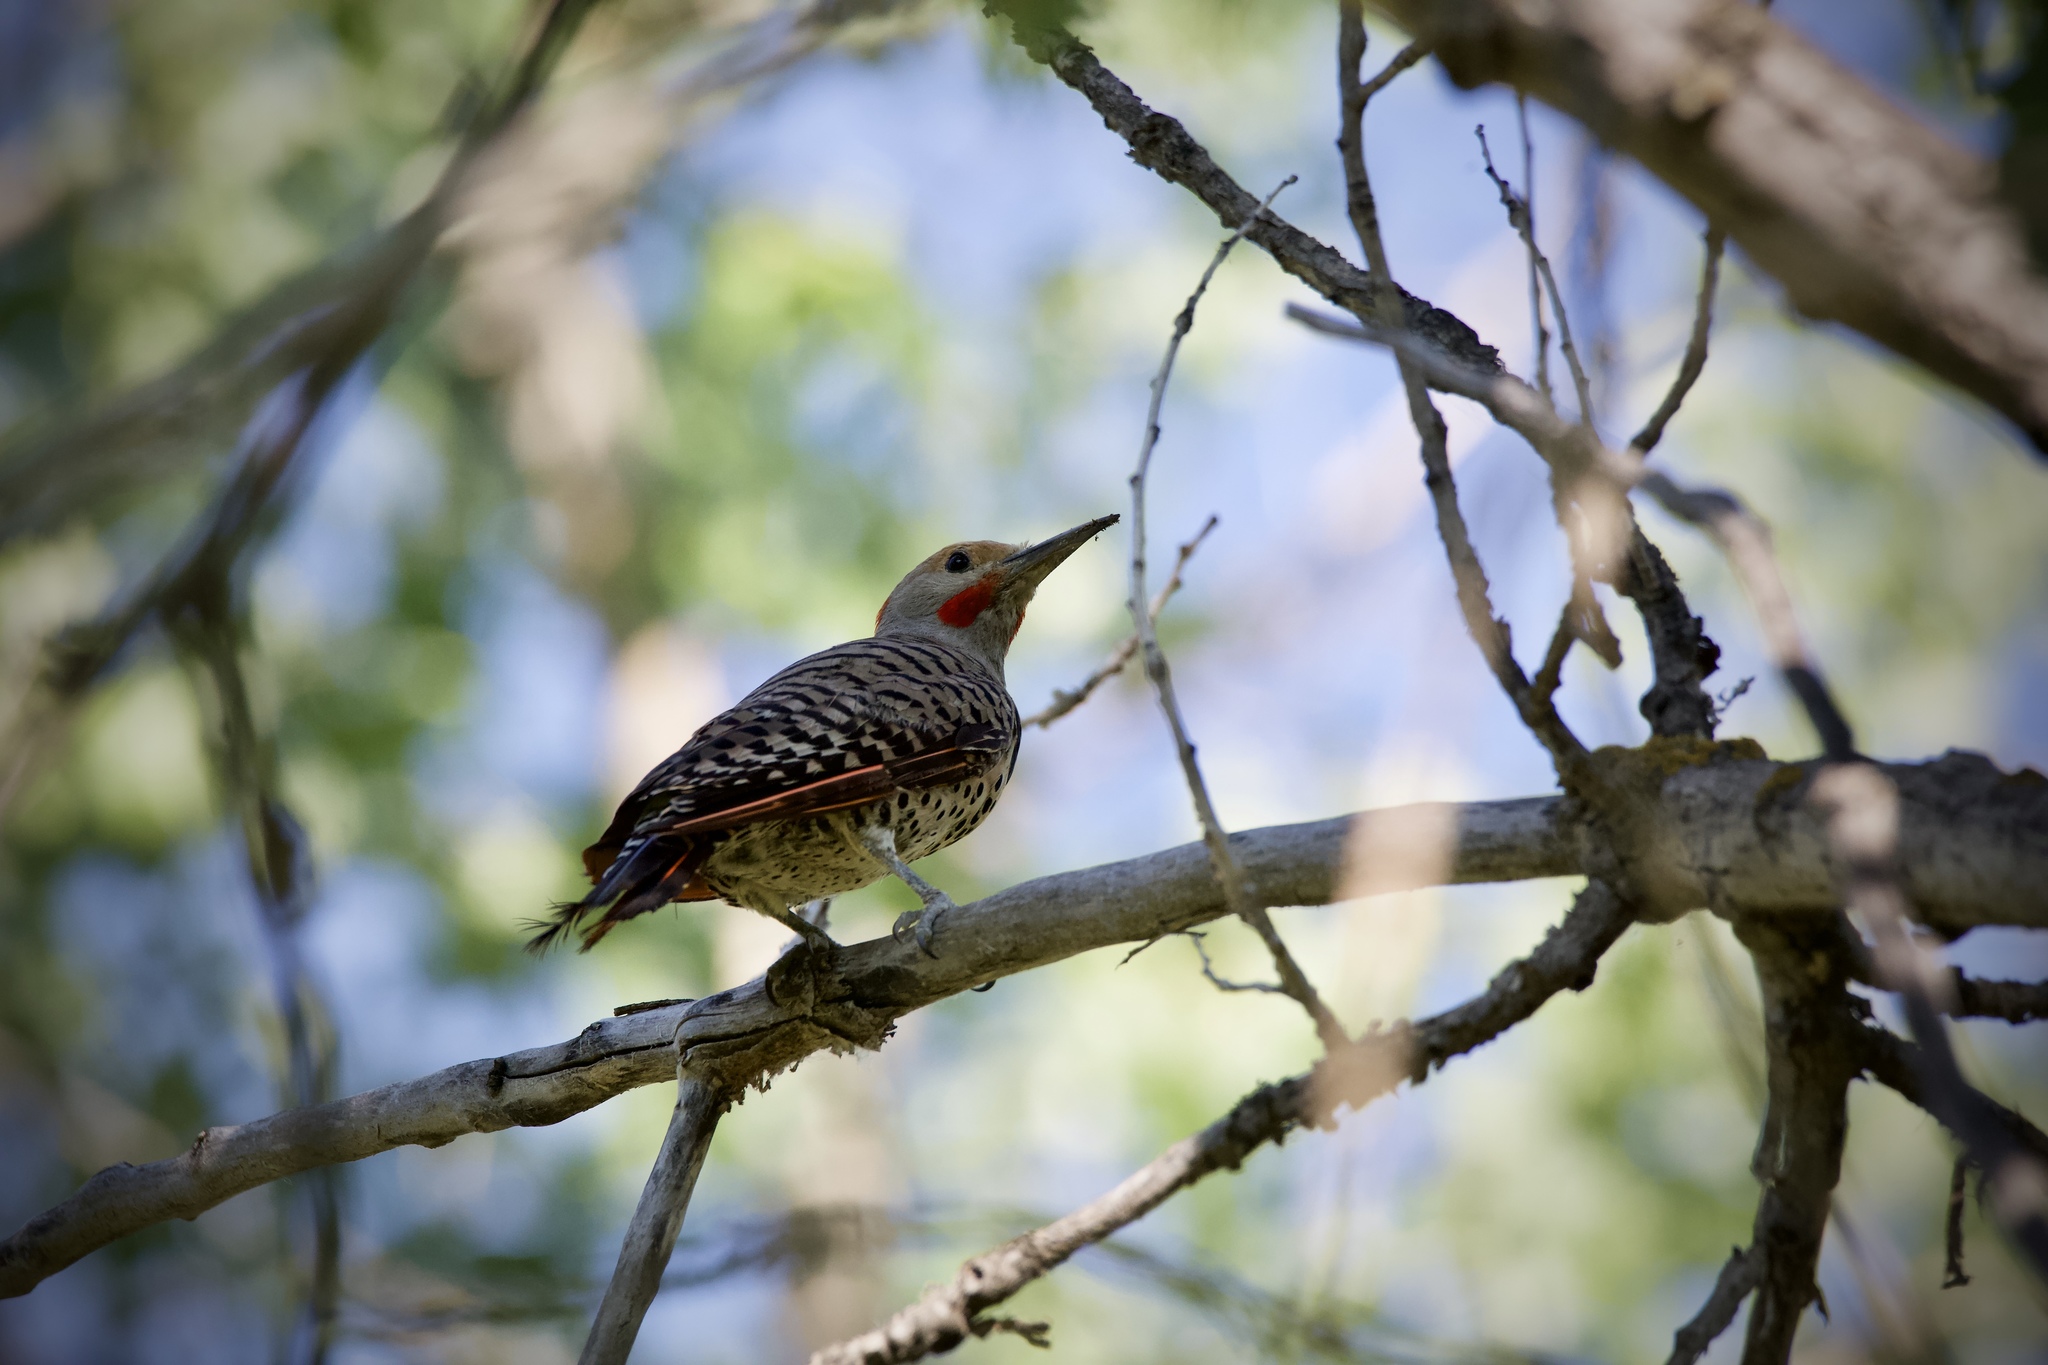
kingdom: Animalia
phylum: Chordata
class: Aves
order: Piciformes
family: Picidae
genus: Colaptes
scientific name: Colaptes auratus
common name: Northern flicker
